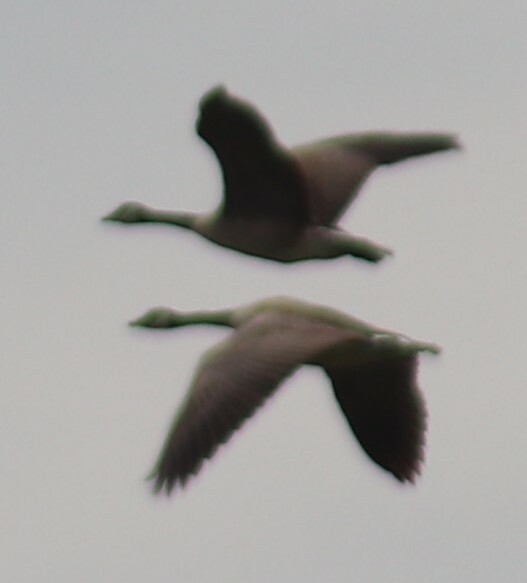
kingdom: Animalia
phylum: Chordata
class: Aves
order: Anseriformes
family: Anatidae
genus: Branta
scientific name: Branta canadensis
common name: Canada goose
